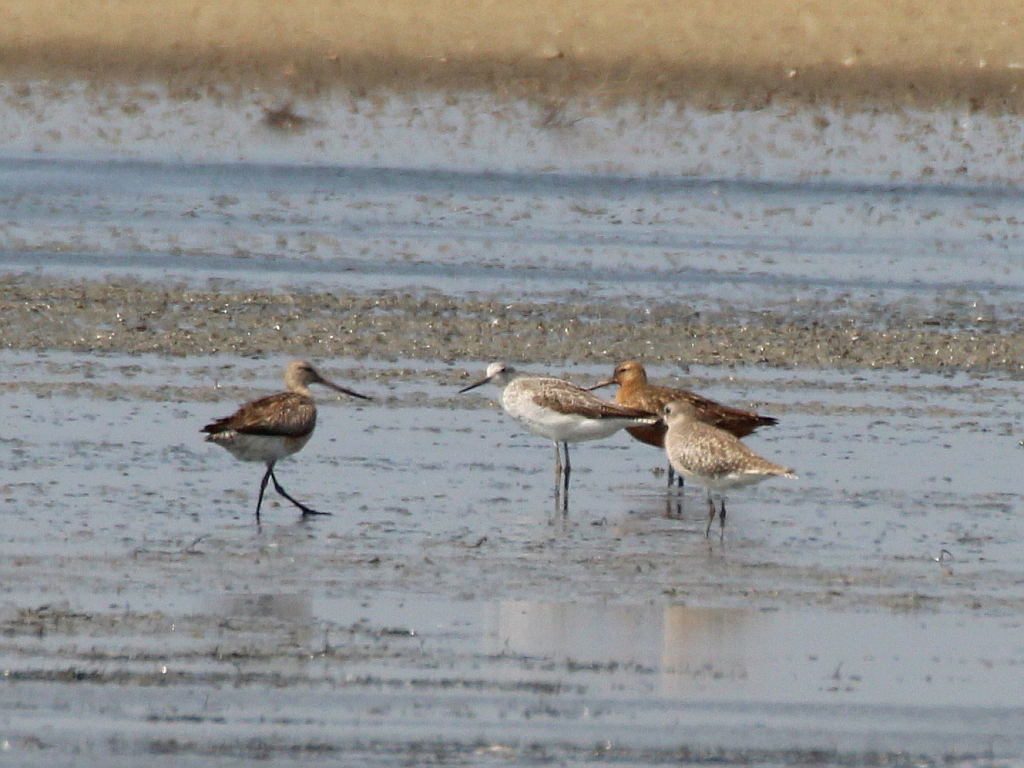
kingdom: Animalia
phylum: Chordata
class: Aves
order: Charadriiformes
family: Scolopacidae
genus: Limosa
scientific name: Limosa lapponica
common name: Bar-tailed godwit
